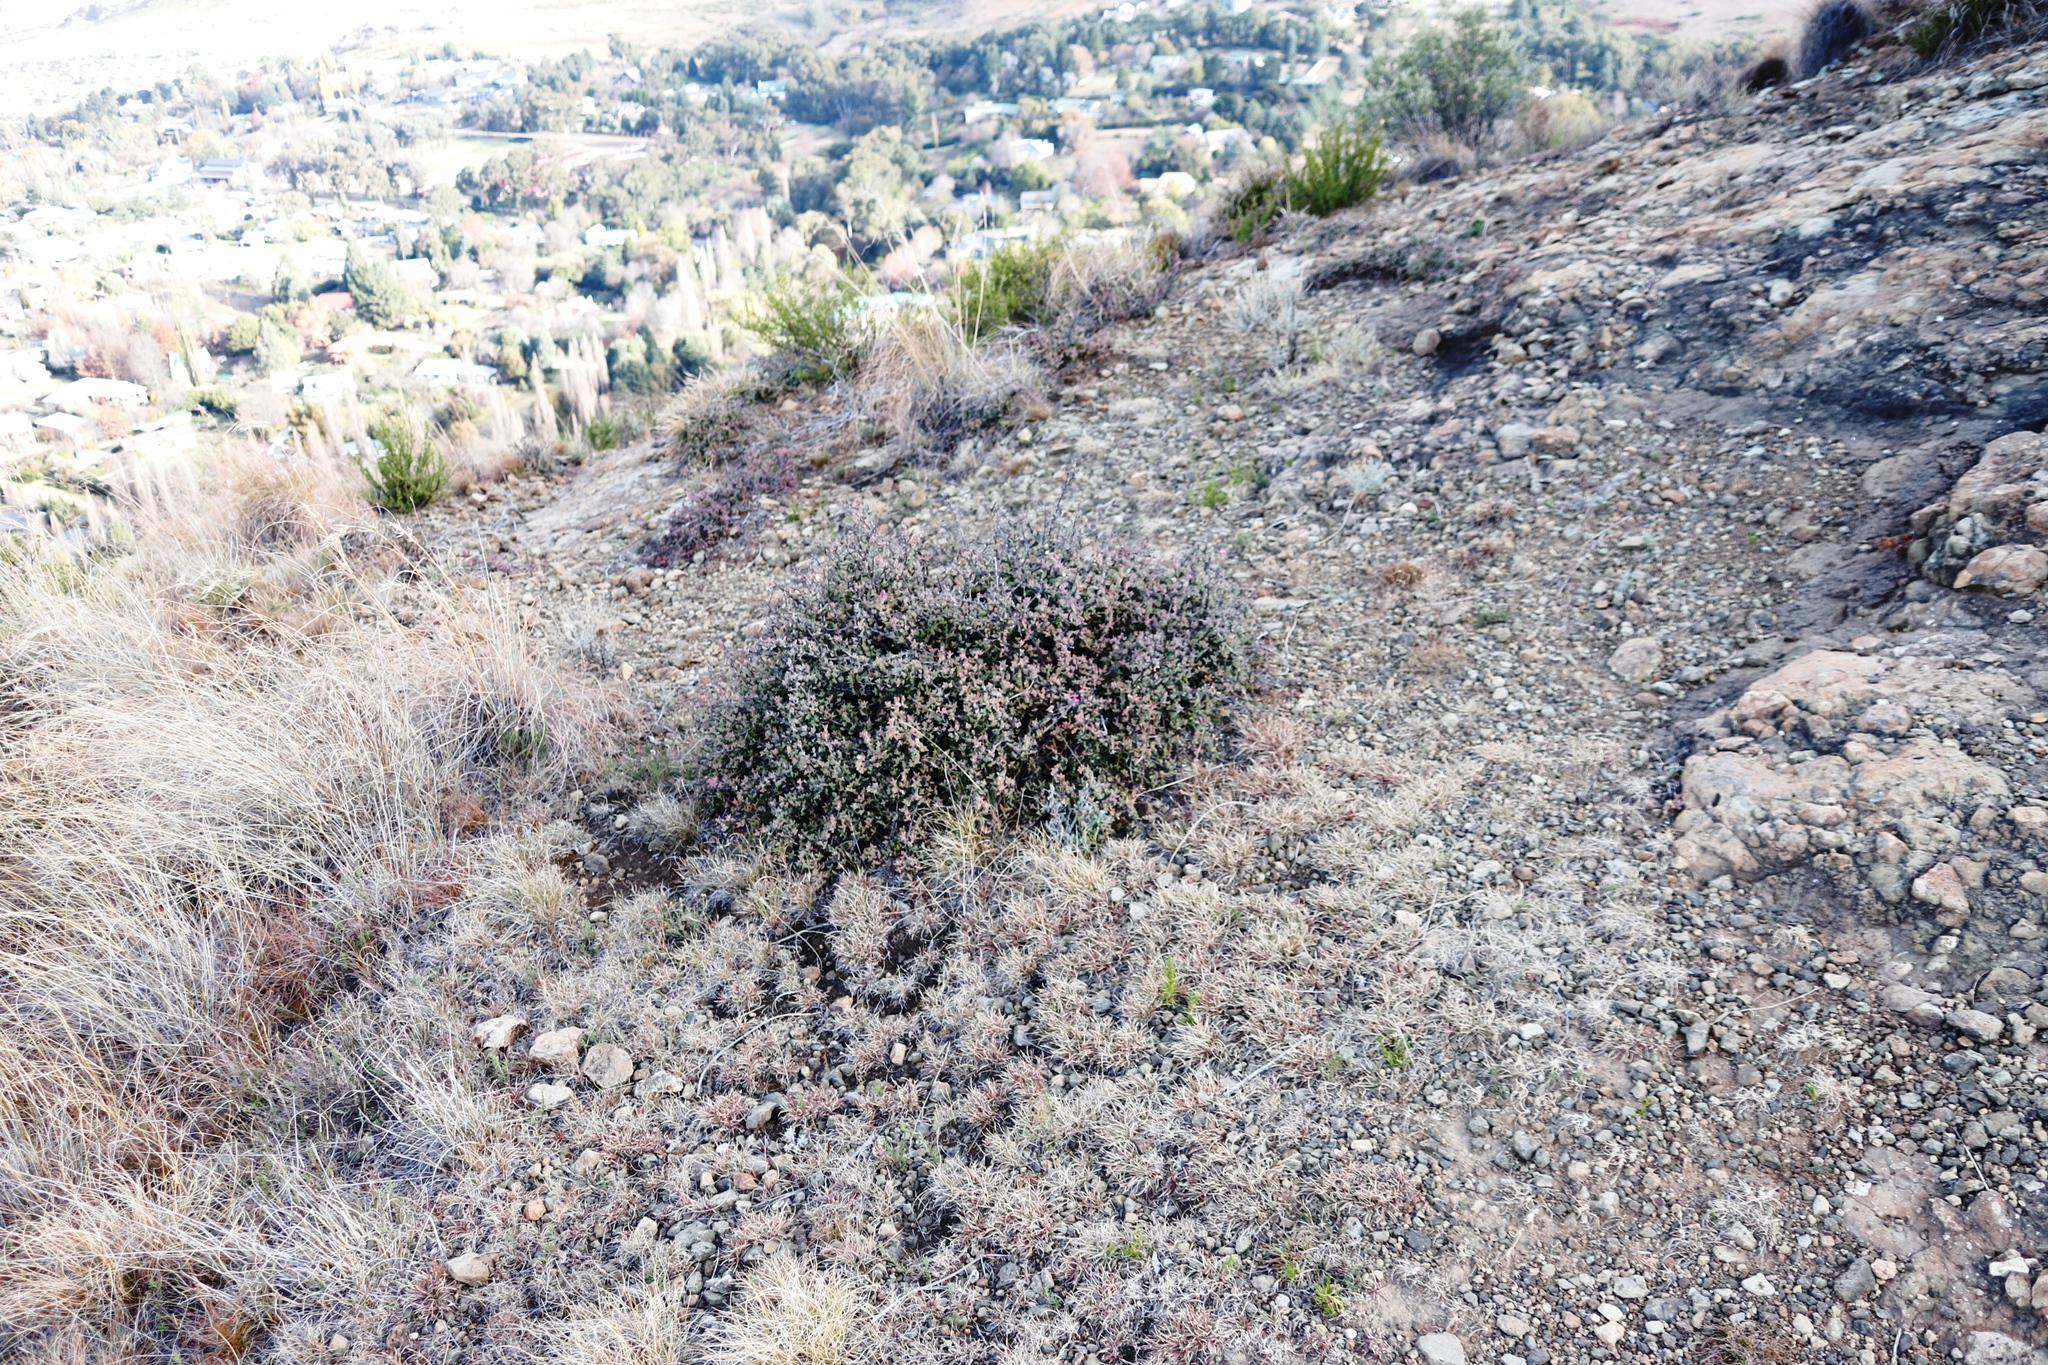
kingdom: Plantae
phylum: Tracheophyta
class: Magnoliopsida
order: Caryophyllales
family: Aizoaceae
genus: Ruschia
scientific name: Ruschia putterillii
